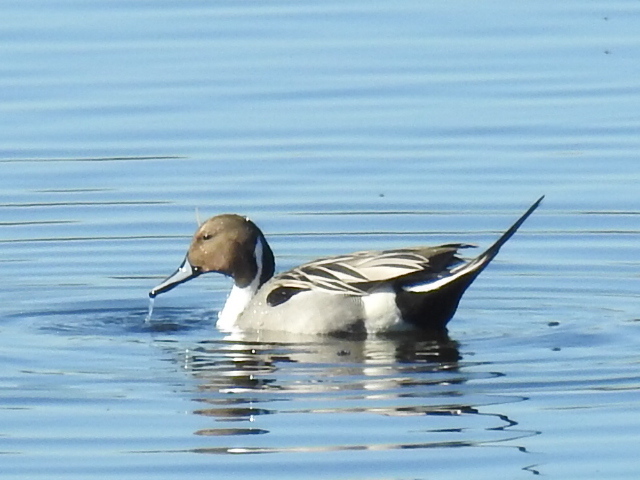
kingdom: Animalia
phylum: Chordata
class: Aves
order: Anseriformes
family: Anatidae
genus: Anas
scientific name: Anas acuta
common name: Northern pintail
